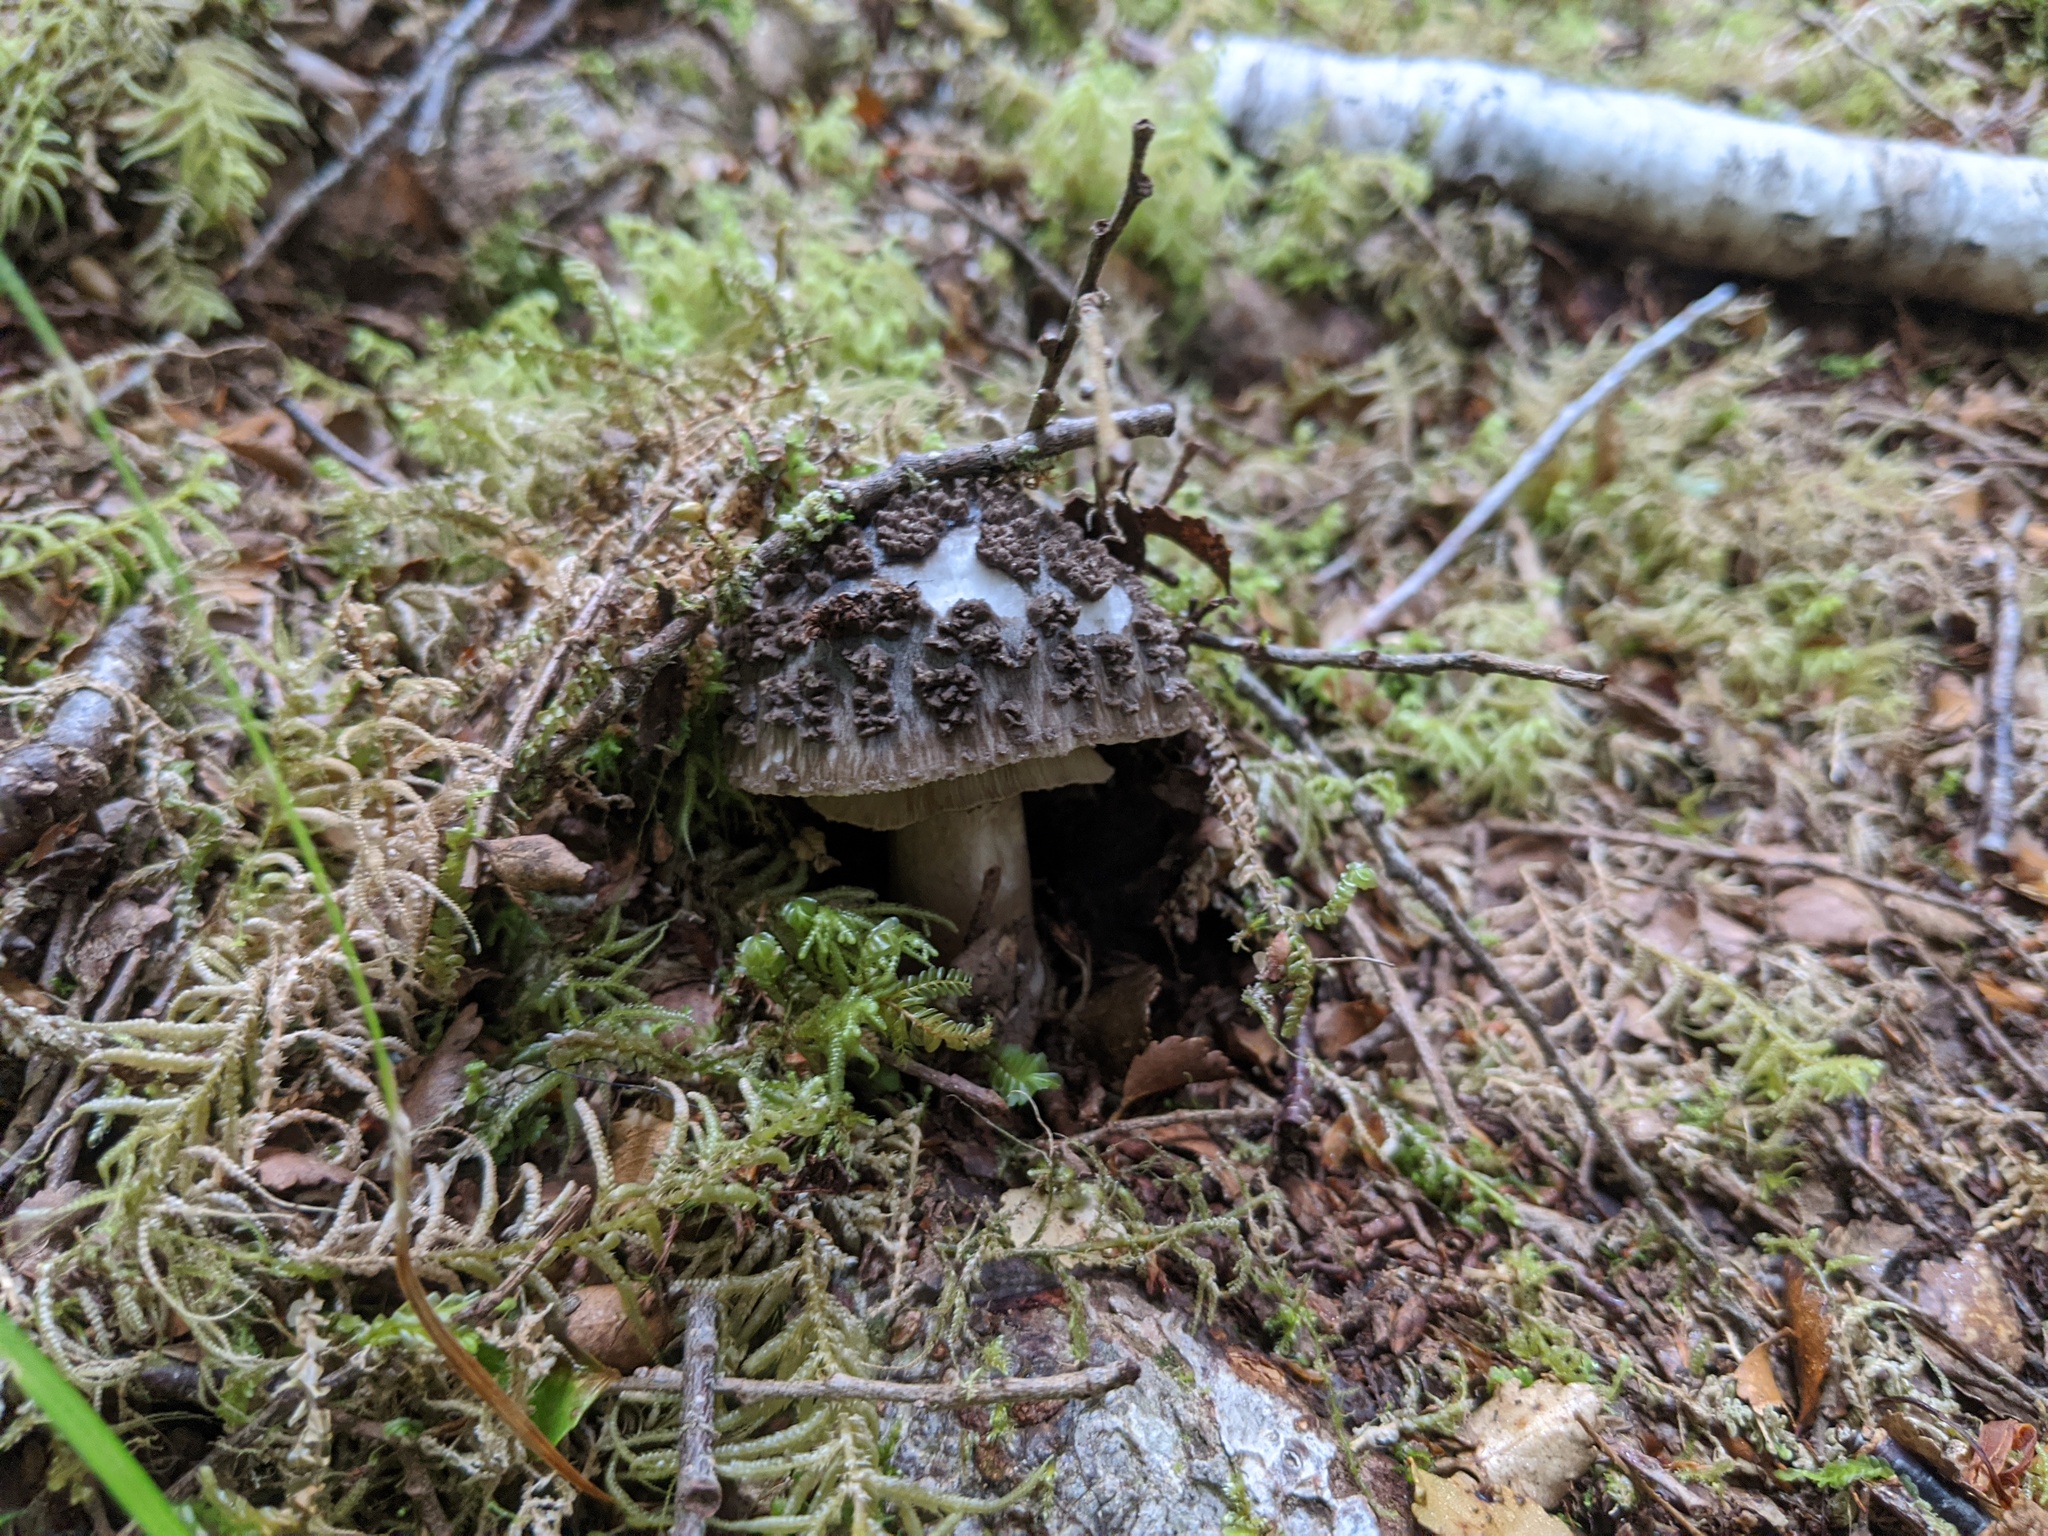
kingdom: Fungi
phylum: Basidiomycota
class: Agaricomycetes
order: Agaricales
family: Amanitaceae
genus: Amanita
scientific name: Amanita nothofagi
